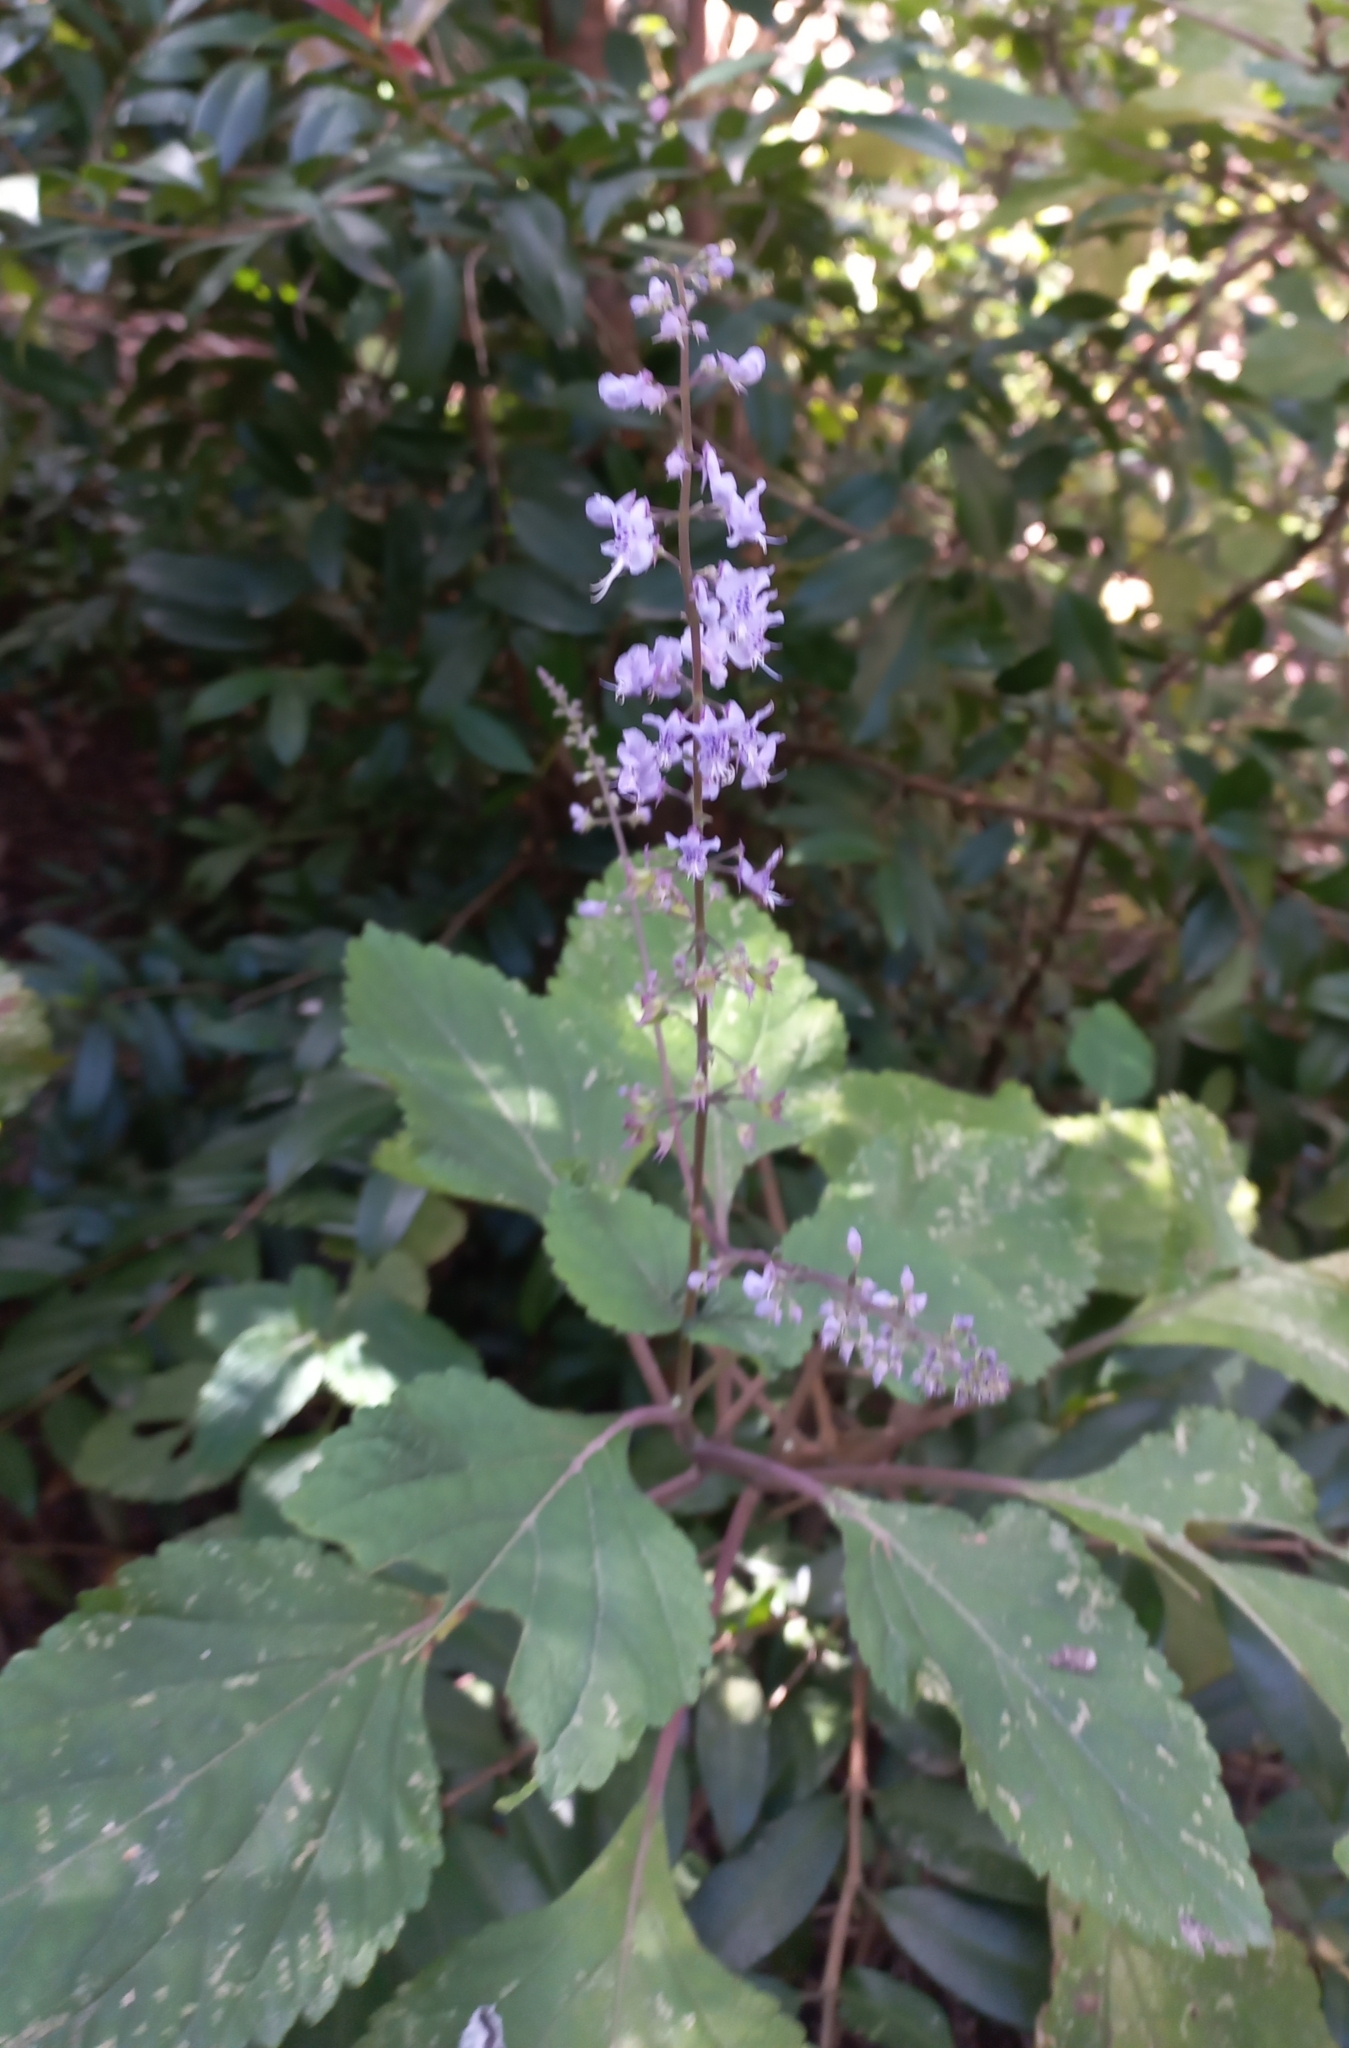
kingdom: Plantae
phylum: Tracheophyta
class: Magnoliopsida
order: Lamiales
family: Lamiaceae
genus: Plectranthus
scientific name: Plectranthus fruticosus
